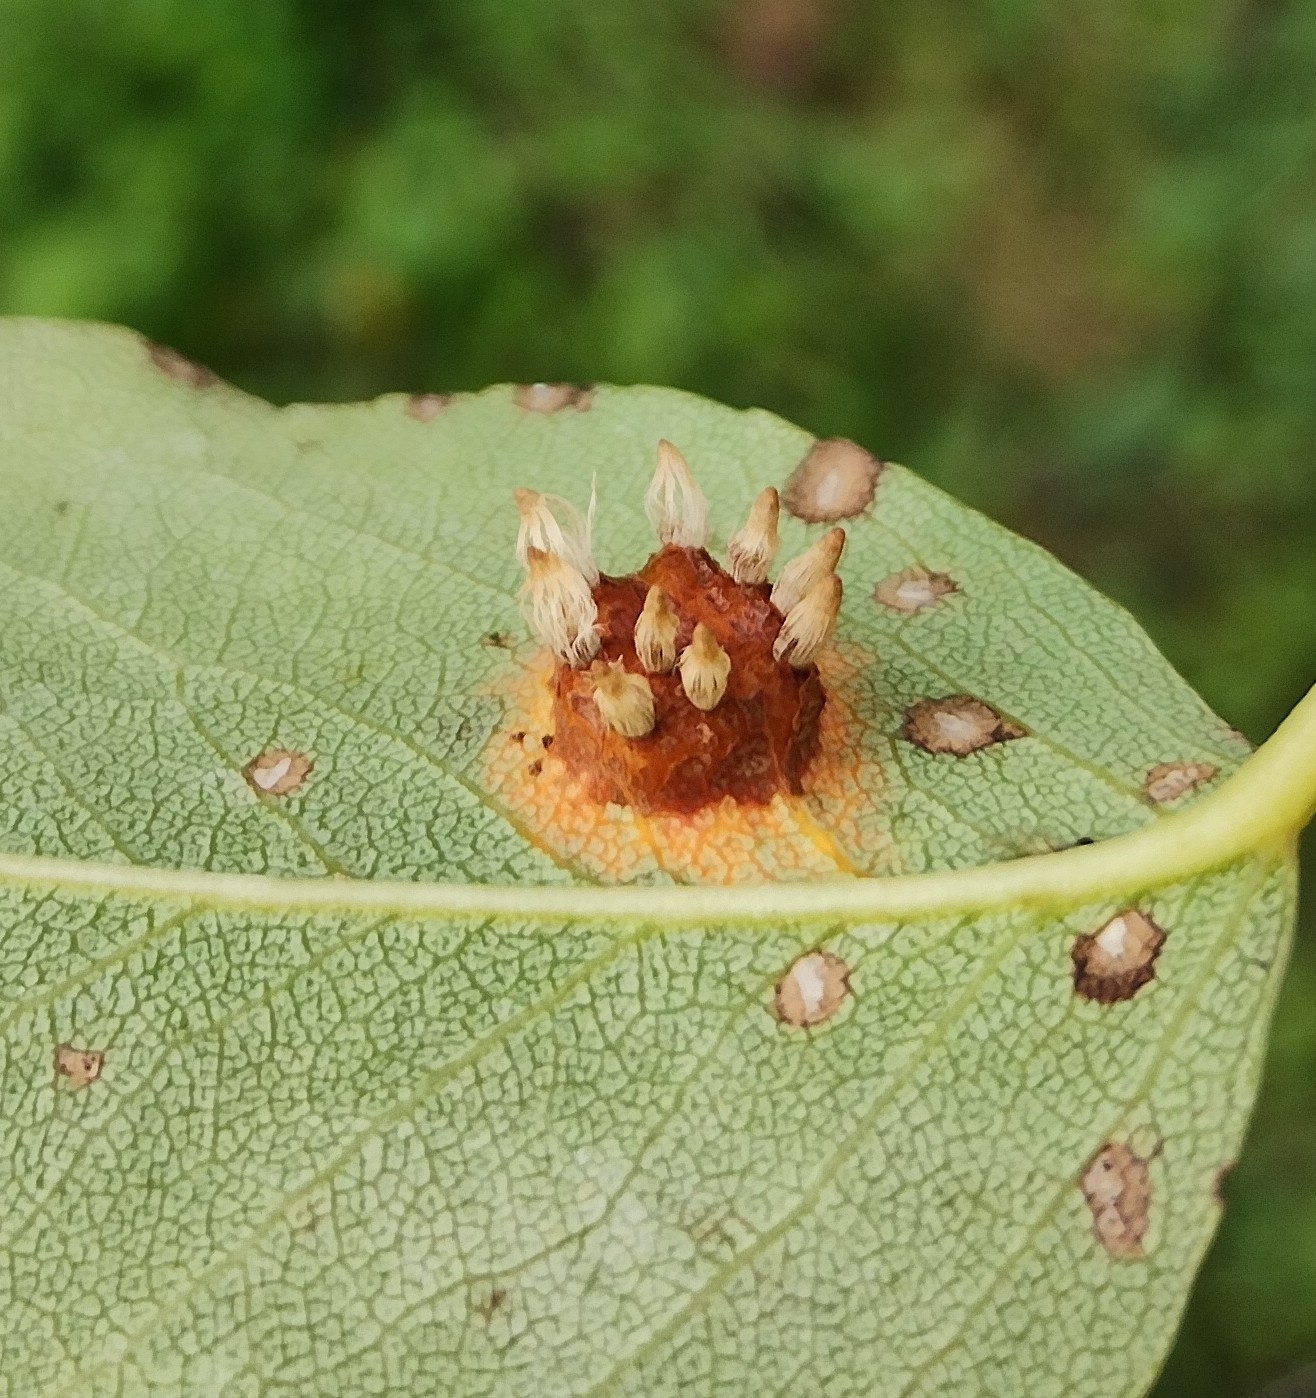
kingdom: Fungi
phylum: Basidiomycota
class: Pucciniomycetes
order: Pucciniales
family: Gymnosporangiaceae
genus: Gymnosporangium
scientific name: Gymnosporangium sabinae
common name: Pear trellis rust fungus
